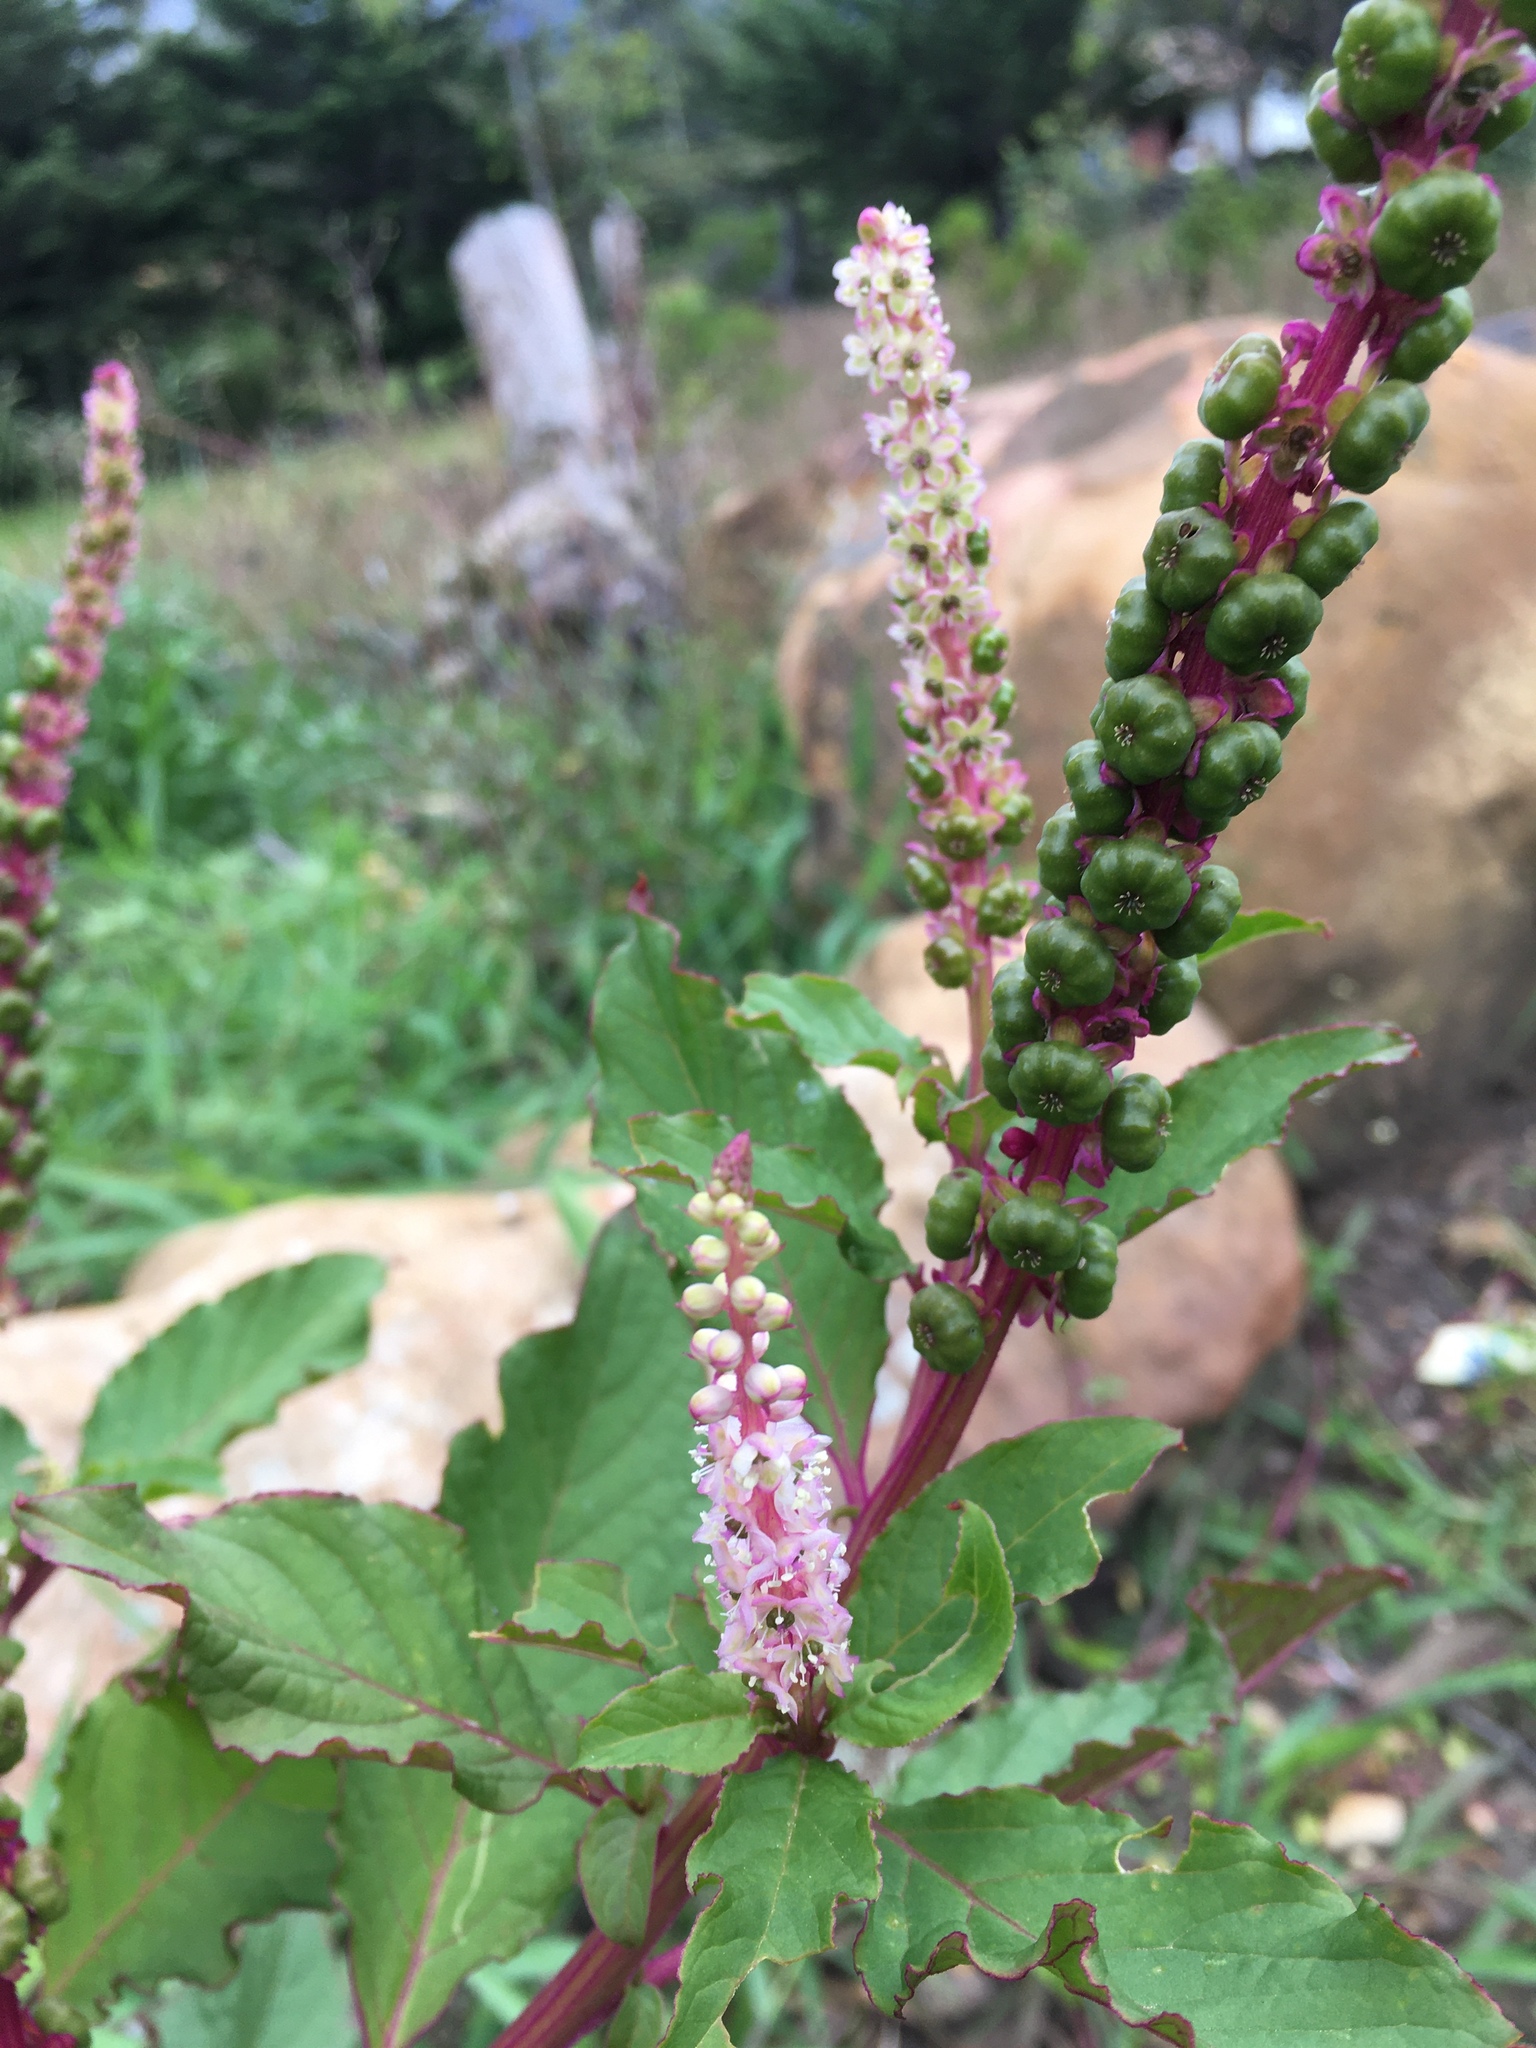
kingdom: Plantae
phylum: Tracheophyta
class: Magnoliopsida
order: Caryophyllales
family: Phytolaccaceae
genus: Phytolacca
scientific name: Phytolacca icosandra
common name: Button pokeweed
